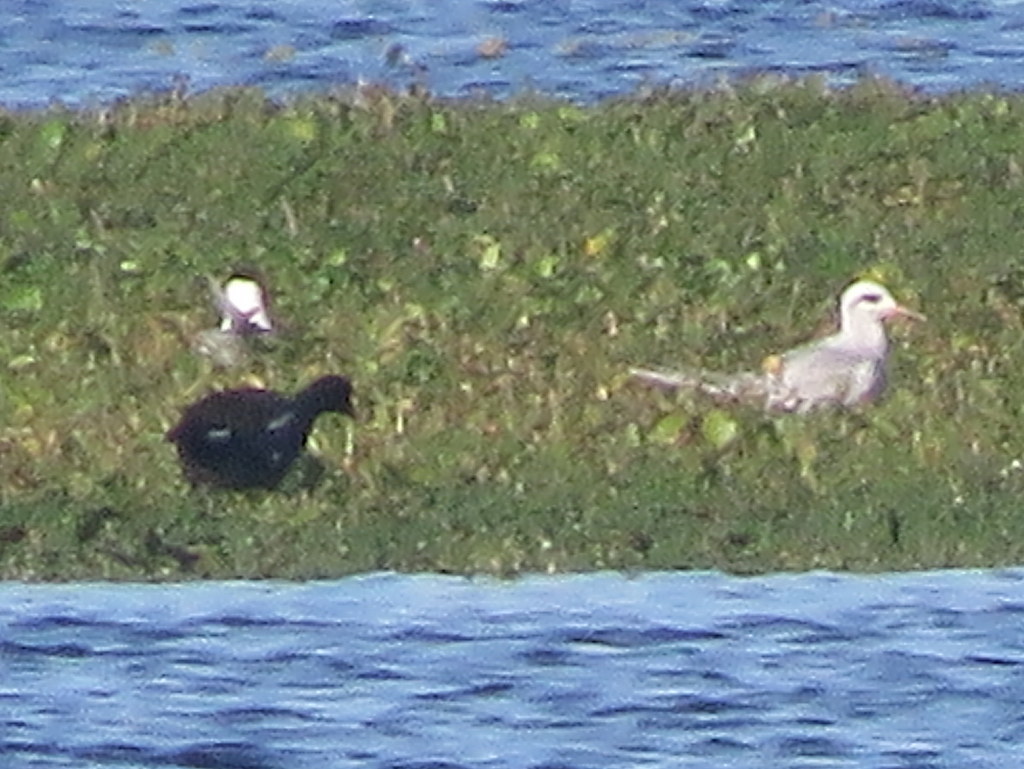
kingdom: Animalia
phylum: Chordata
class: Aves
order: Charadriiformes
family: Laridae
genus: Sterna
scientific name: Sterna trudeaui
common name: Snowy-crowned tern
